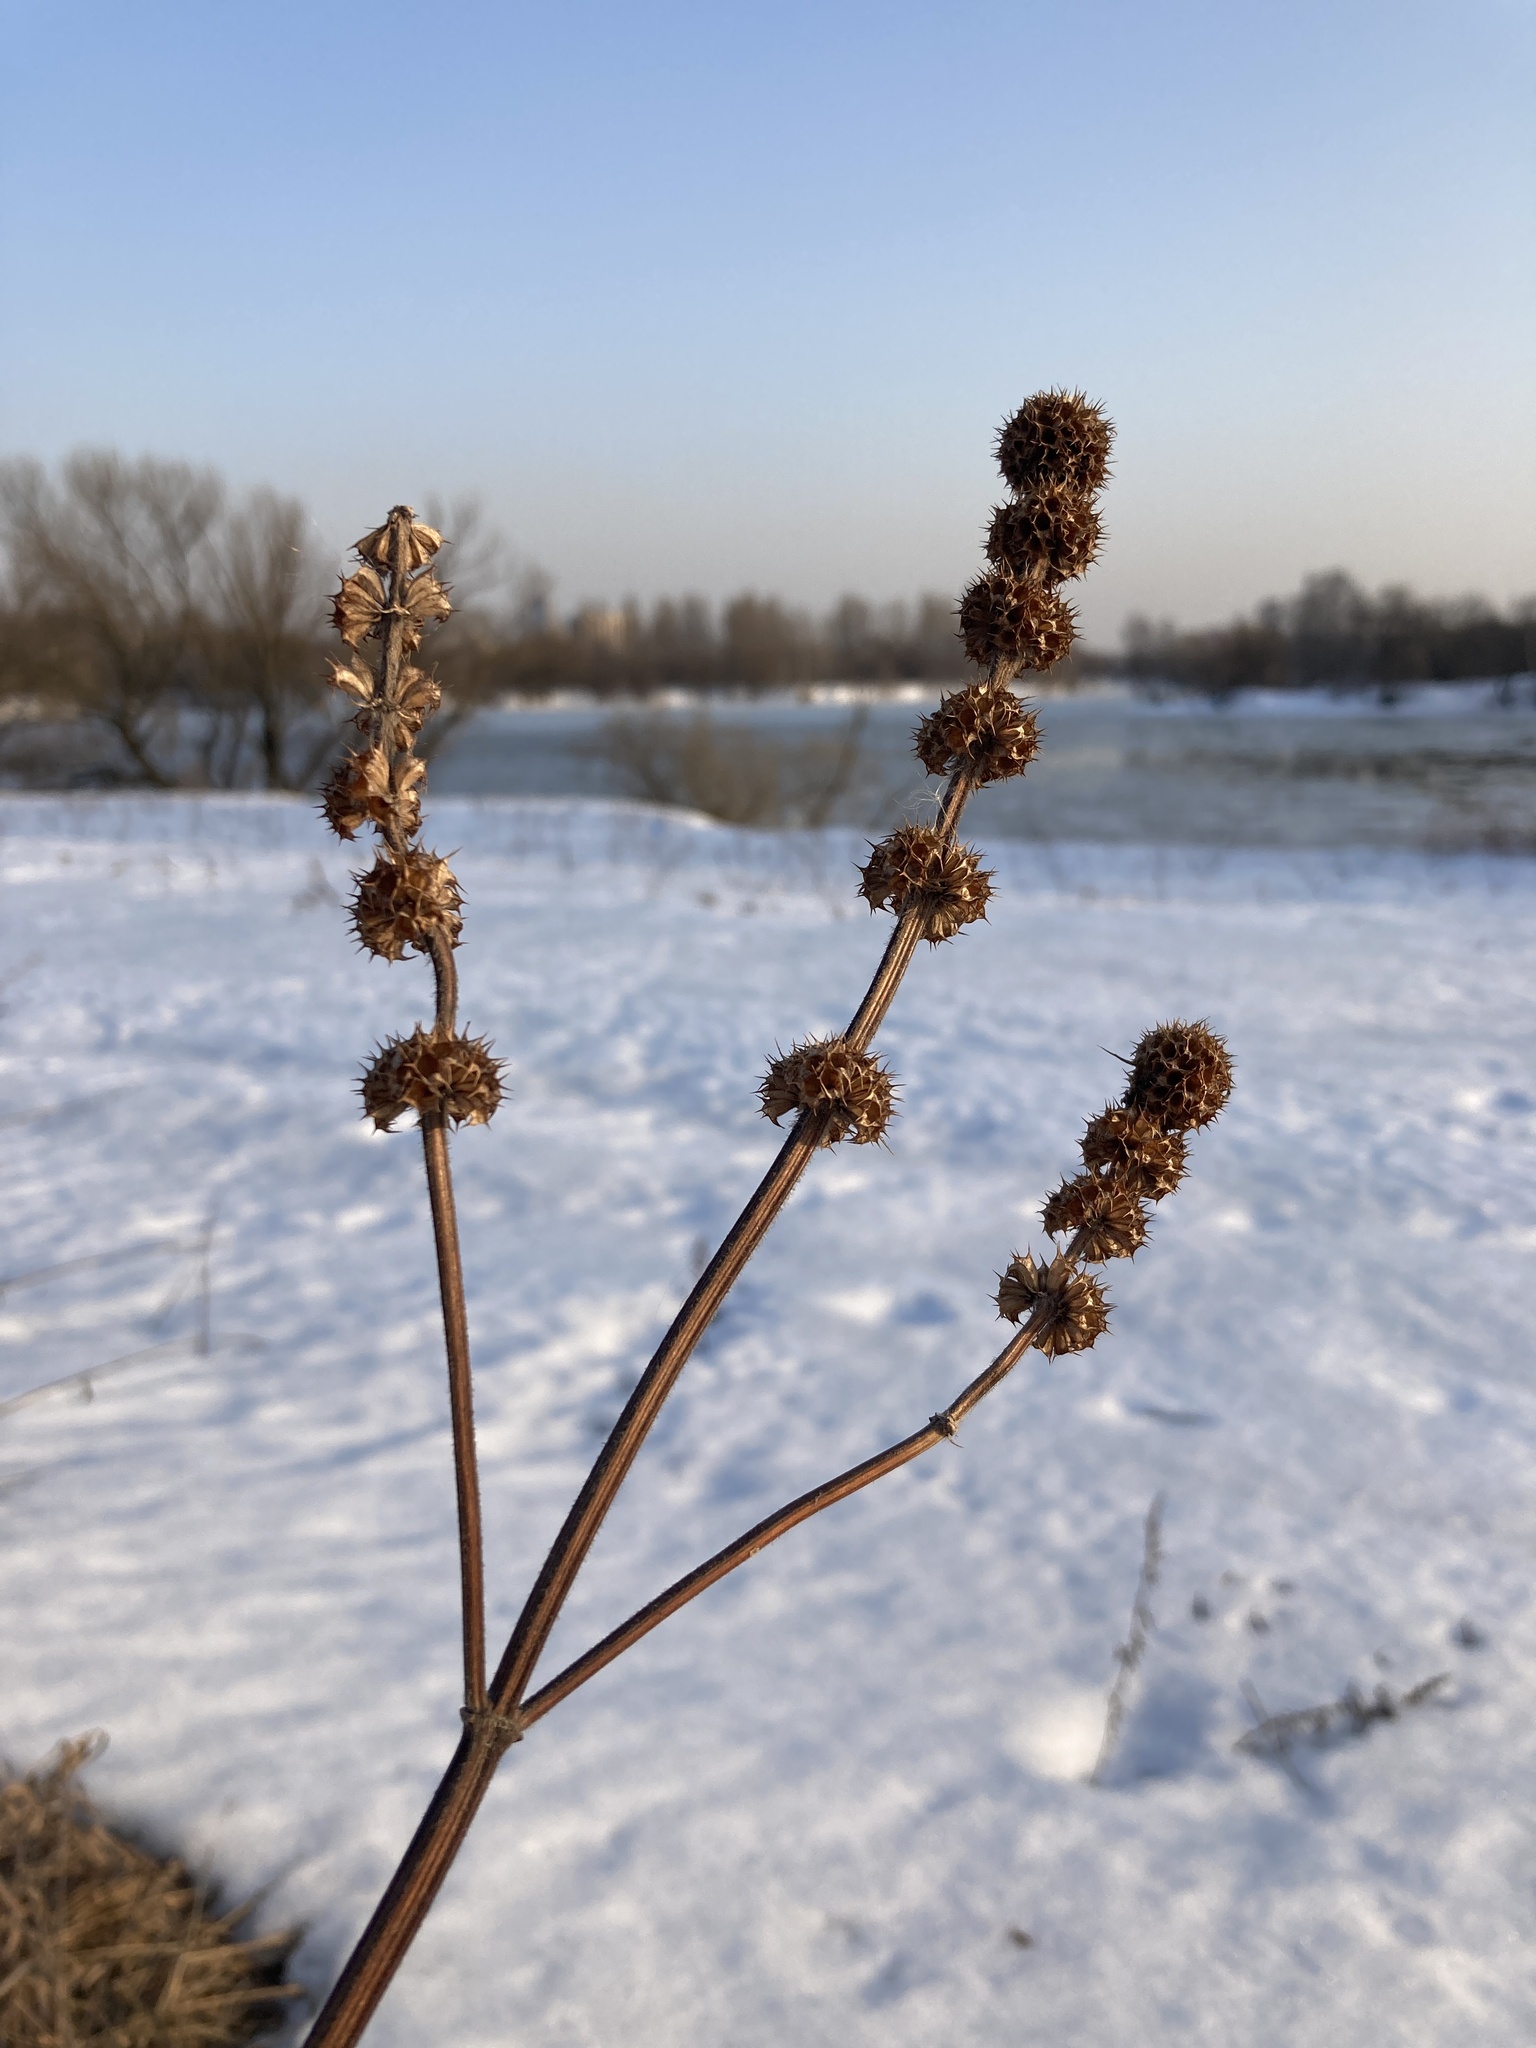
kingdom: Plantae
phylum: Tracheophyta
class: Magnoliopsida
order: Lamiales
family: Lamiaceae
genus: Leonurus
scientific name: Leonurus quinquelobatus
